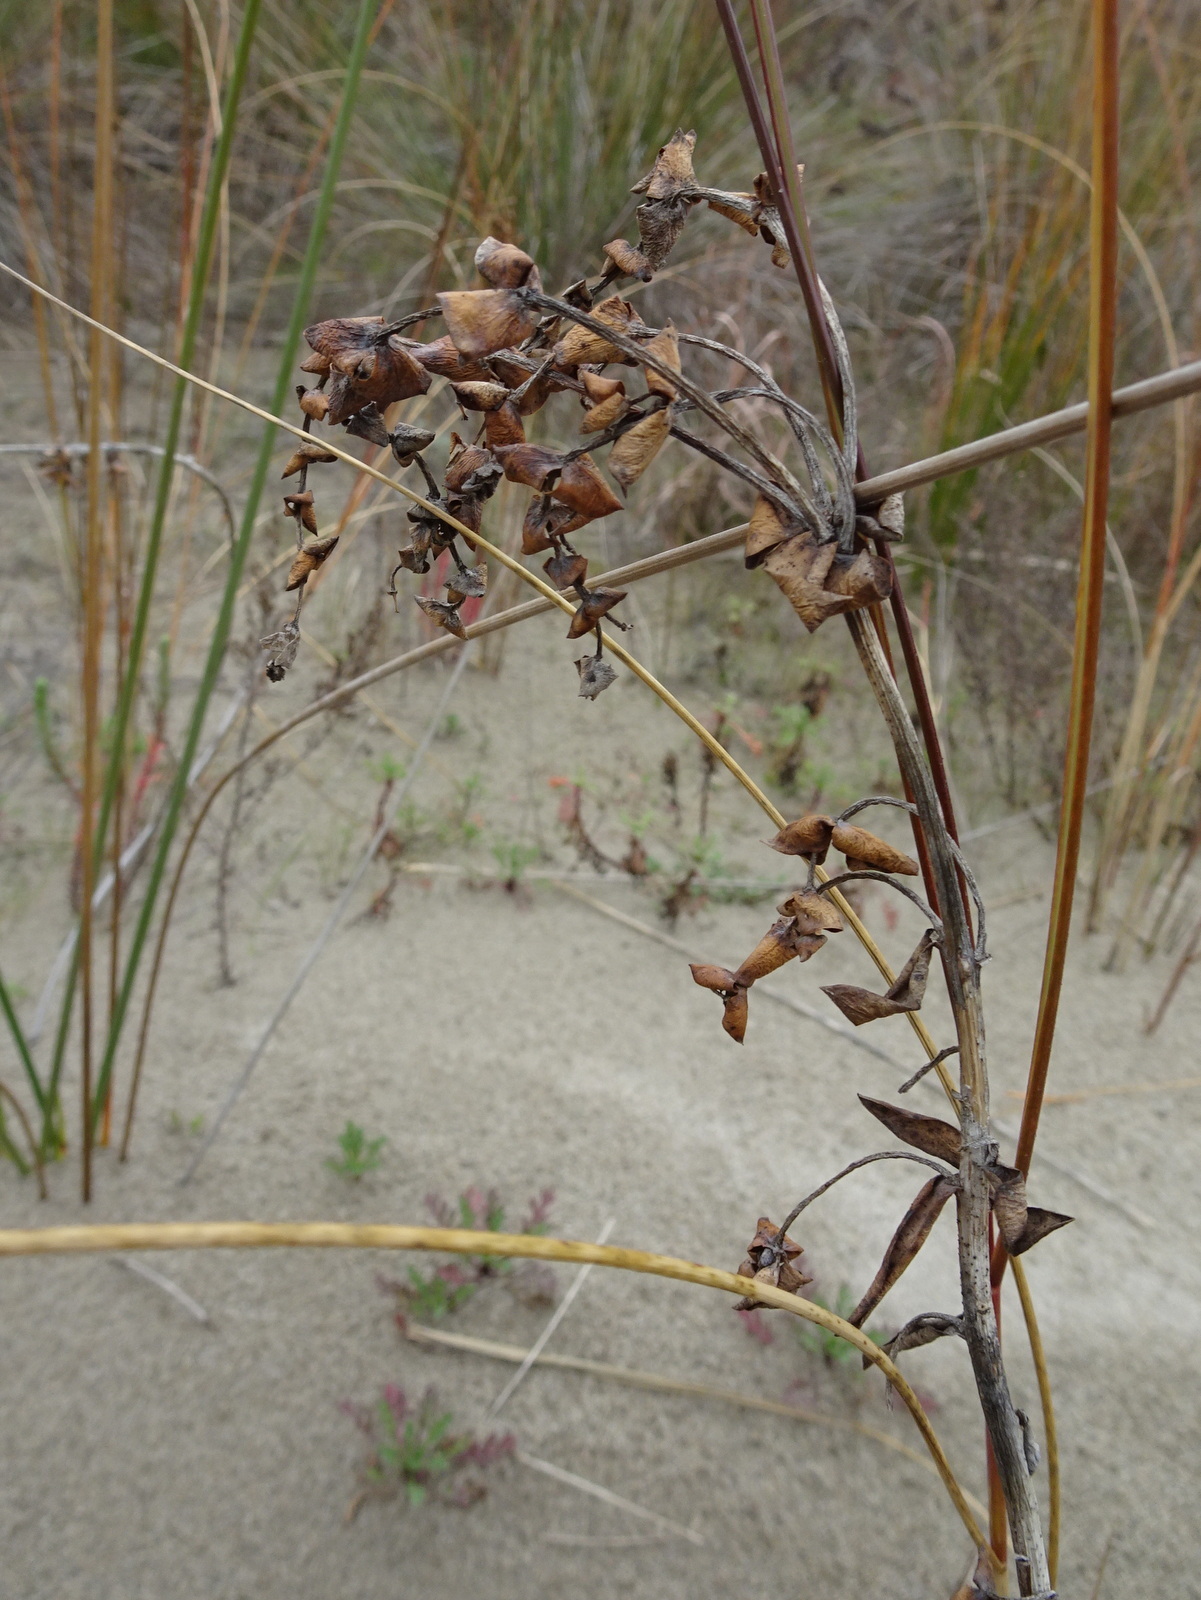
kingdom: Plantae
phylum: Tracheophyta
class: Magnoliopsida
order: Malpighiales
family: Euphorbiaceae
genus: Euphorbia
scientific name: Euphorbia paralias
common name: Sea spurge
